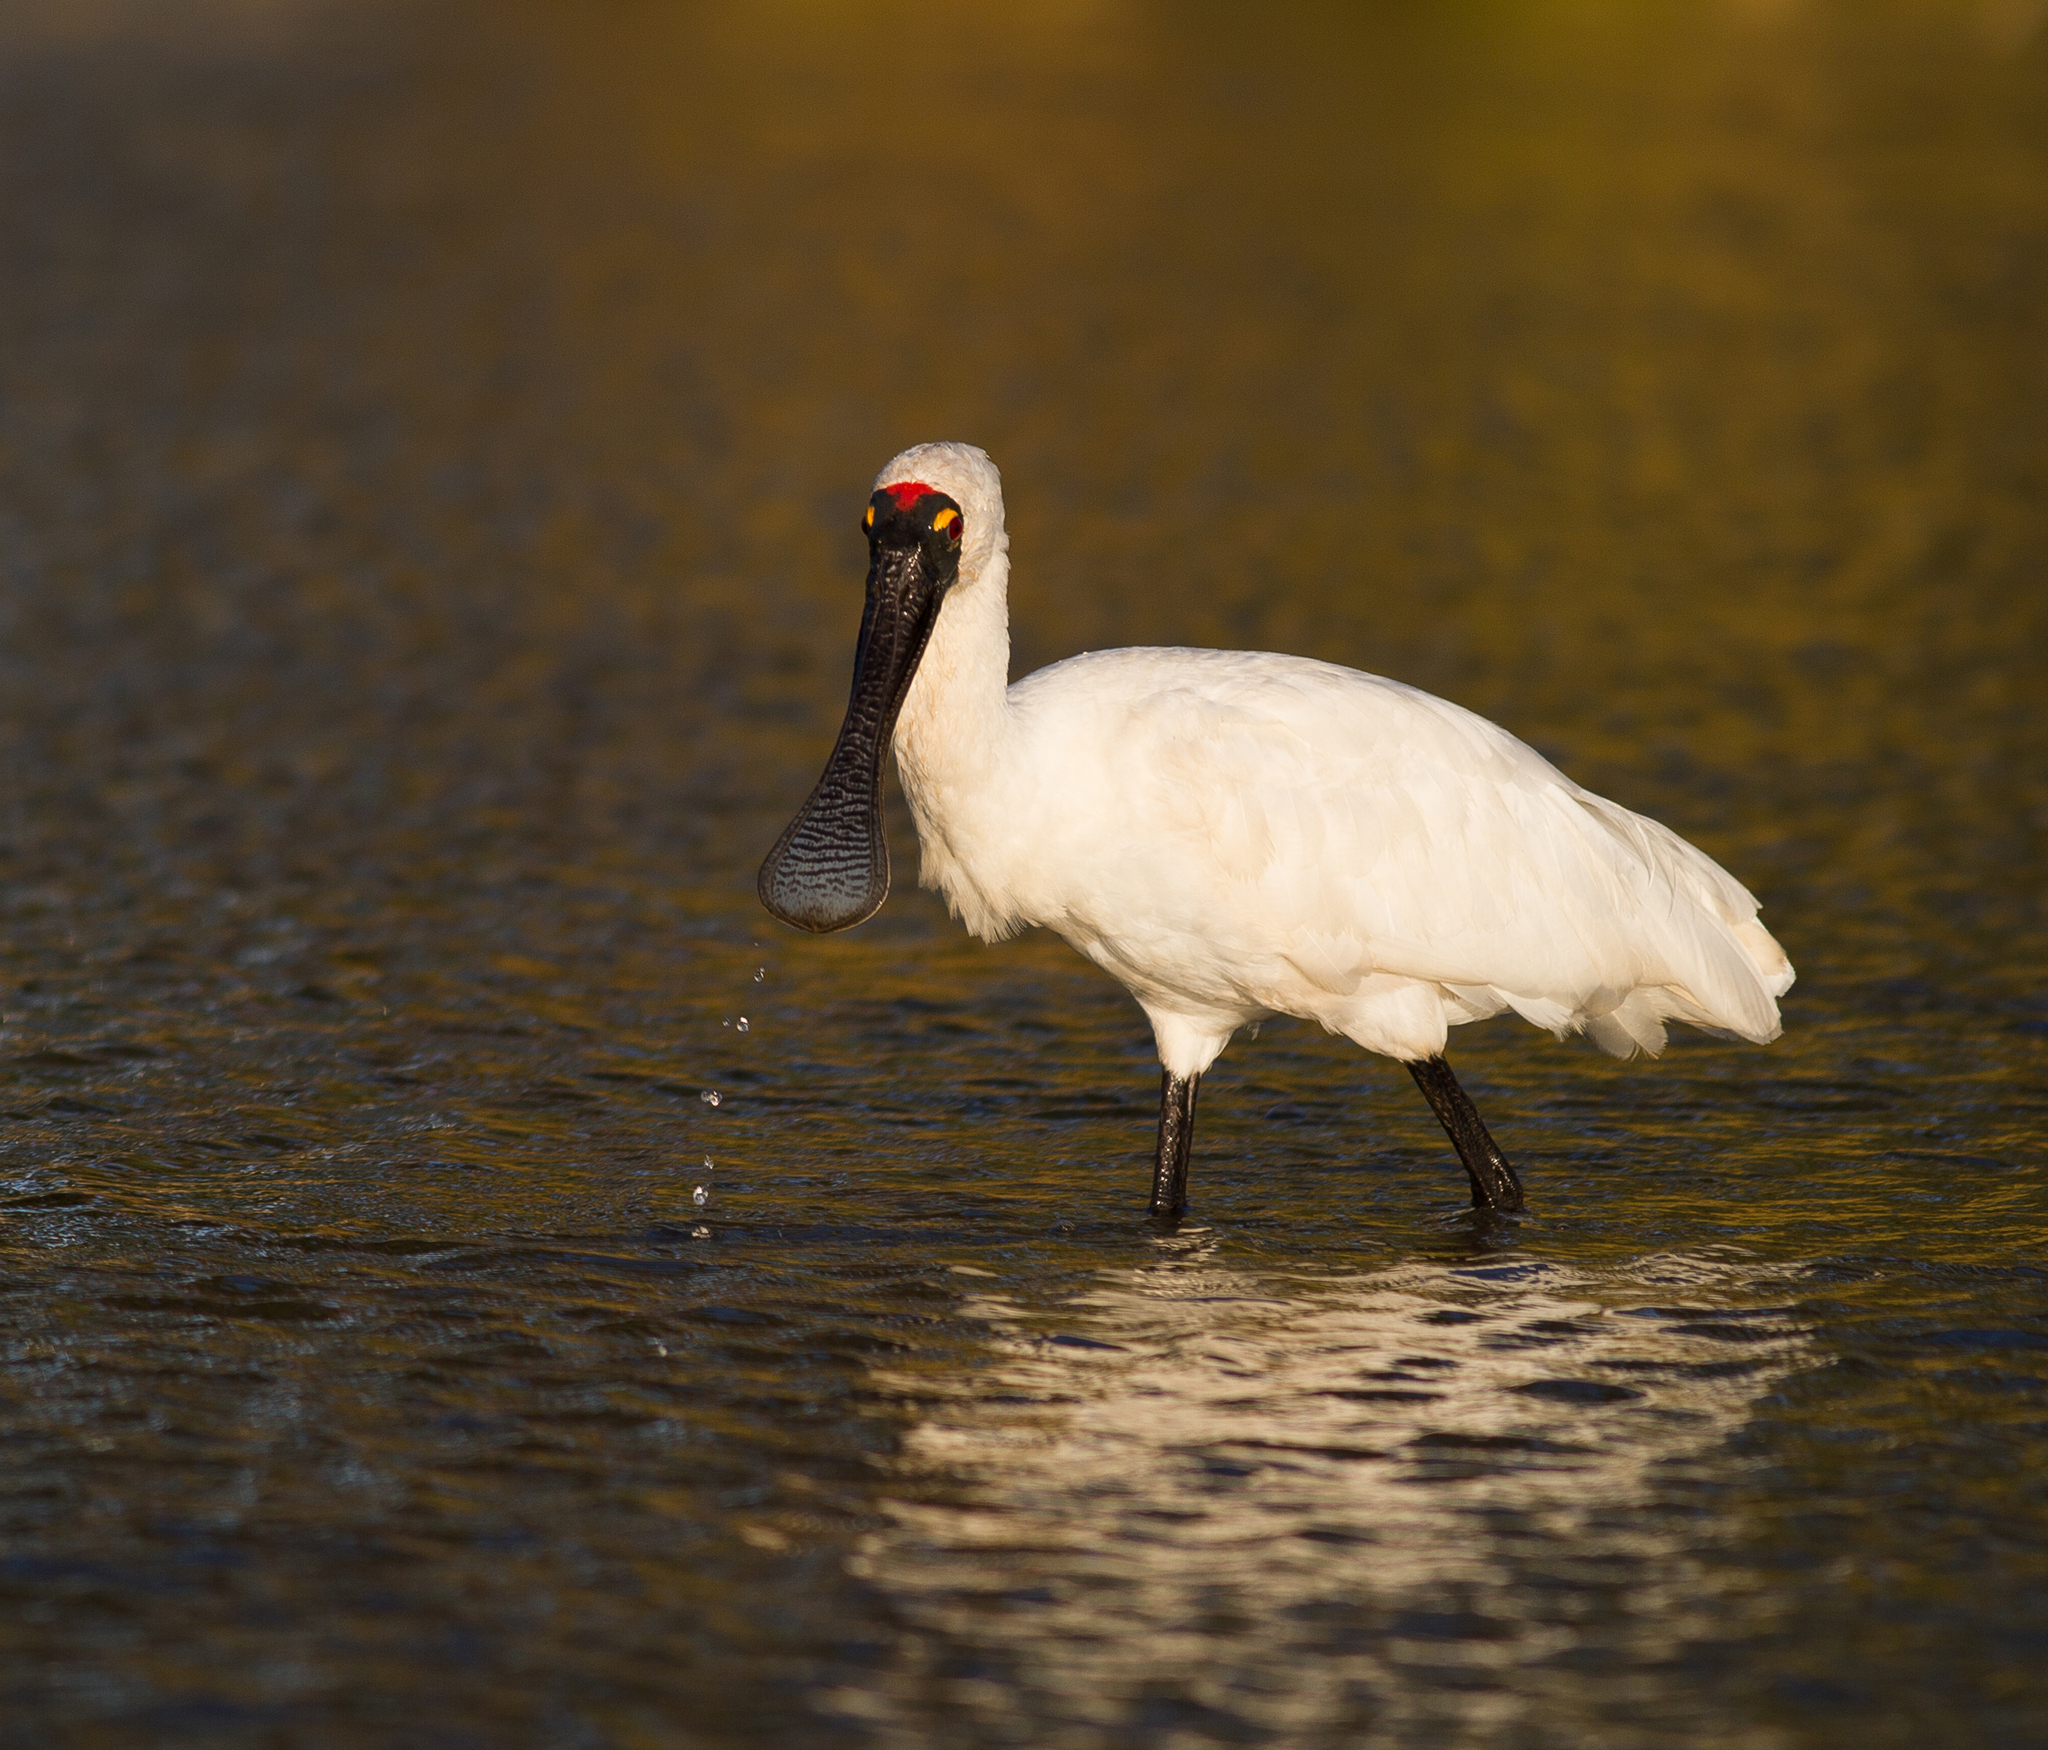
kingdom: Animalia
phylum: Chordata
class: Aves
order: Pelecaniformes
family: Threskiornithidae
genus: Platalea
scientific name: Platalea regia
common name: Royal spoonbill
